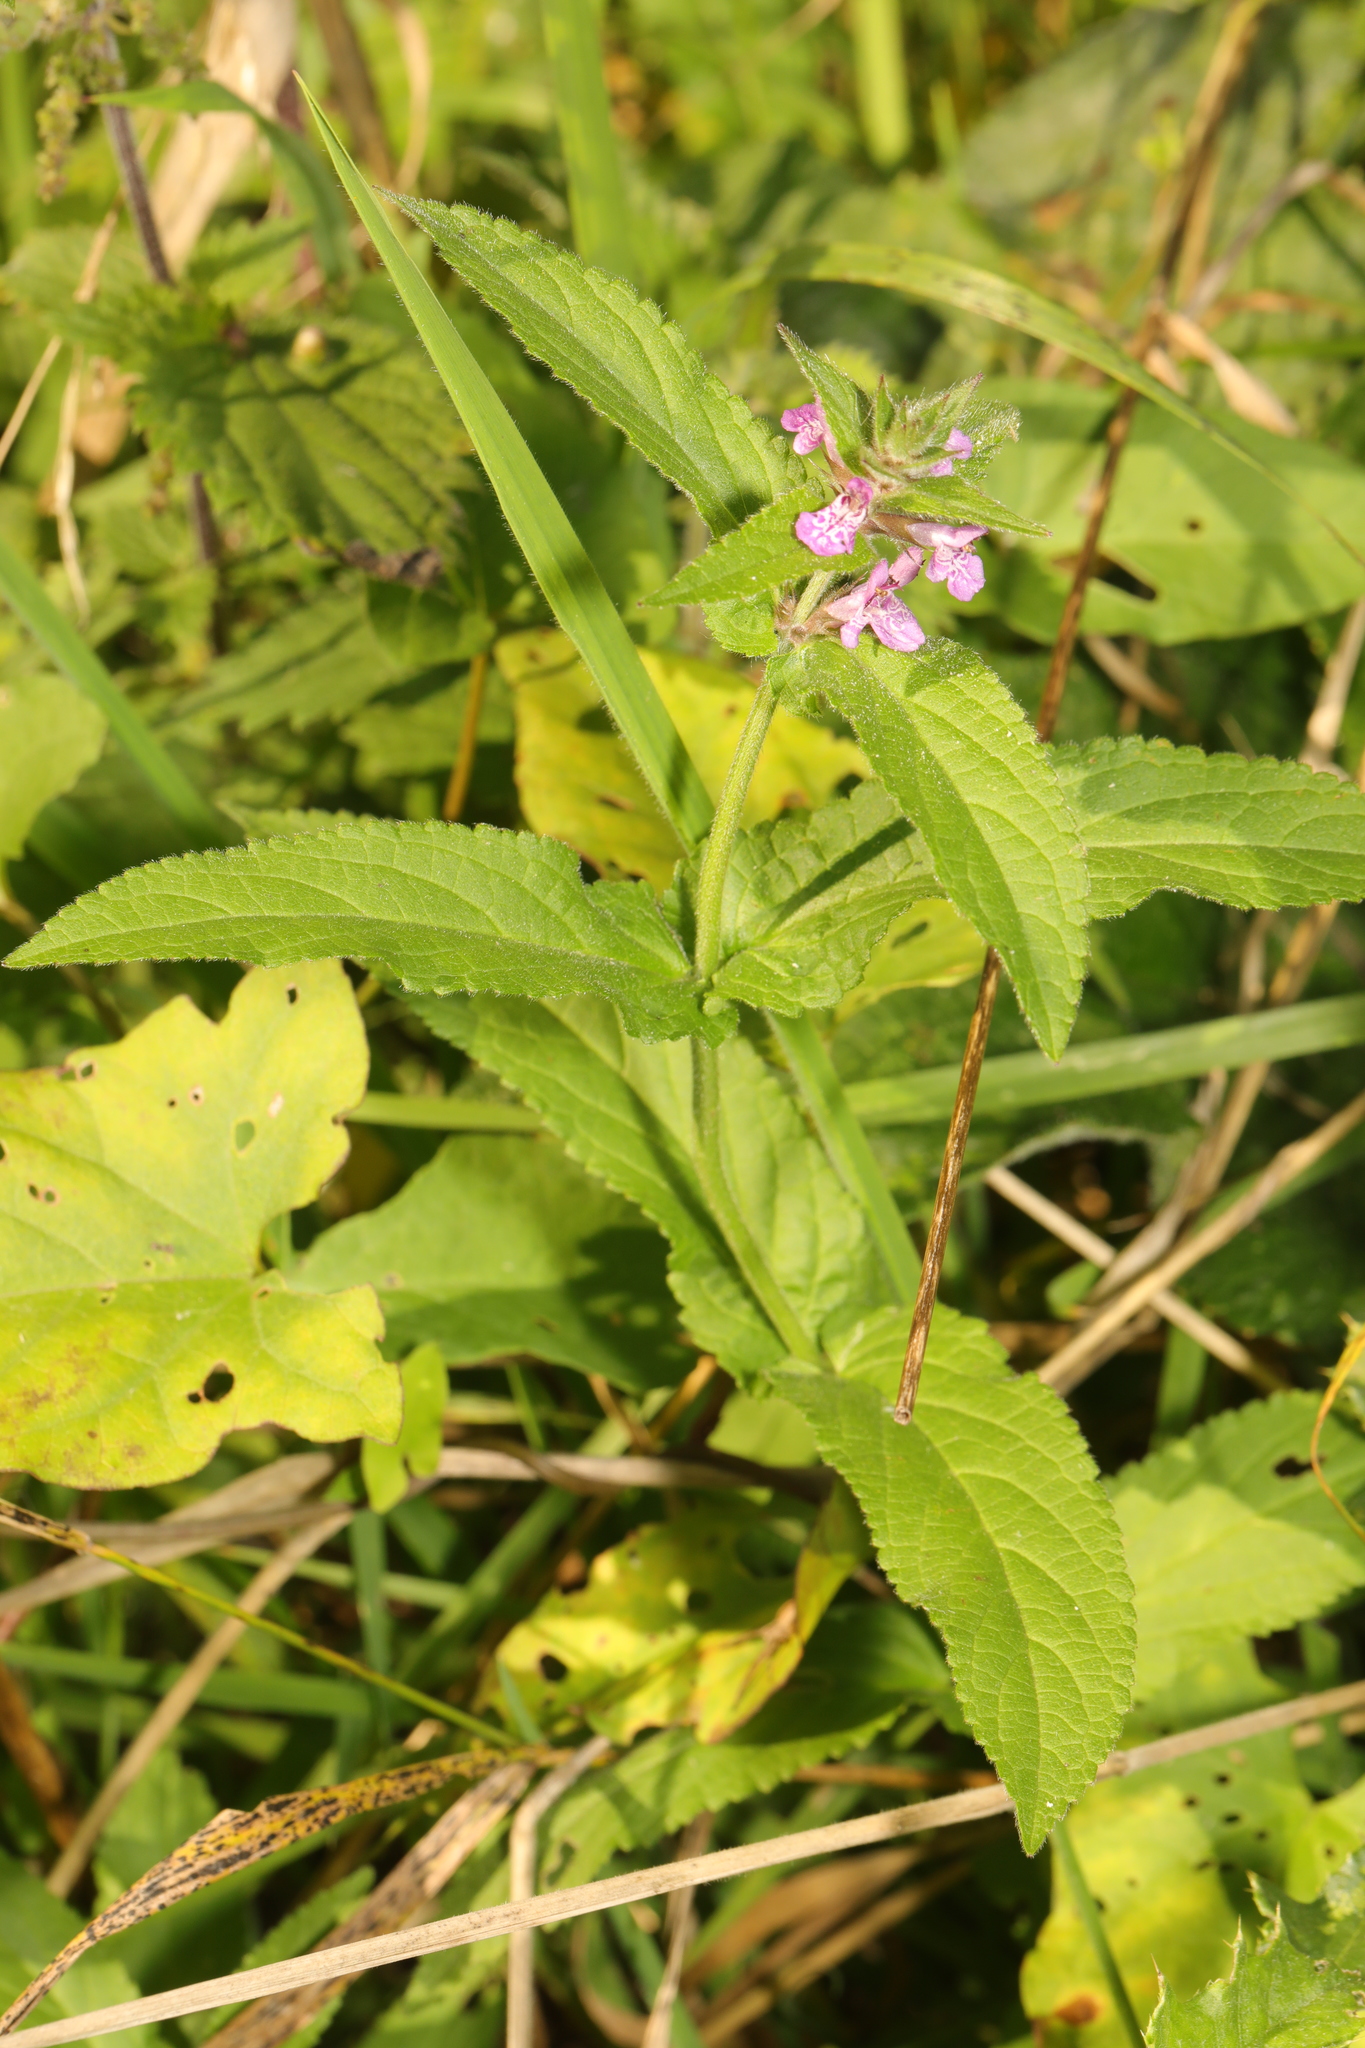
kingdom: Plantae
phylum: Tracheophyta
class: Magnoliopsida
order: Lamiales
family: Lamiaceae
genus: Stachys
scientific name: Stachys palustris
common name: Marsh woundwort
